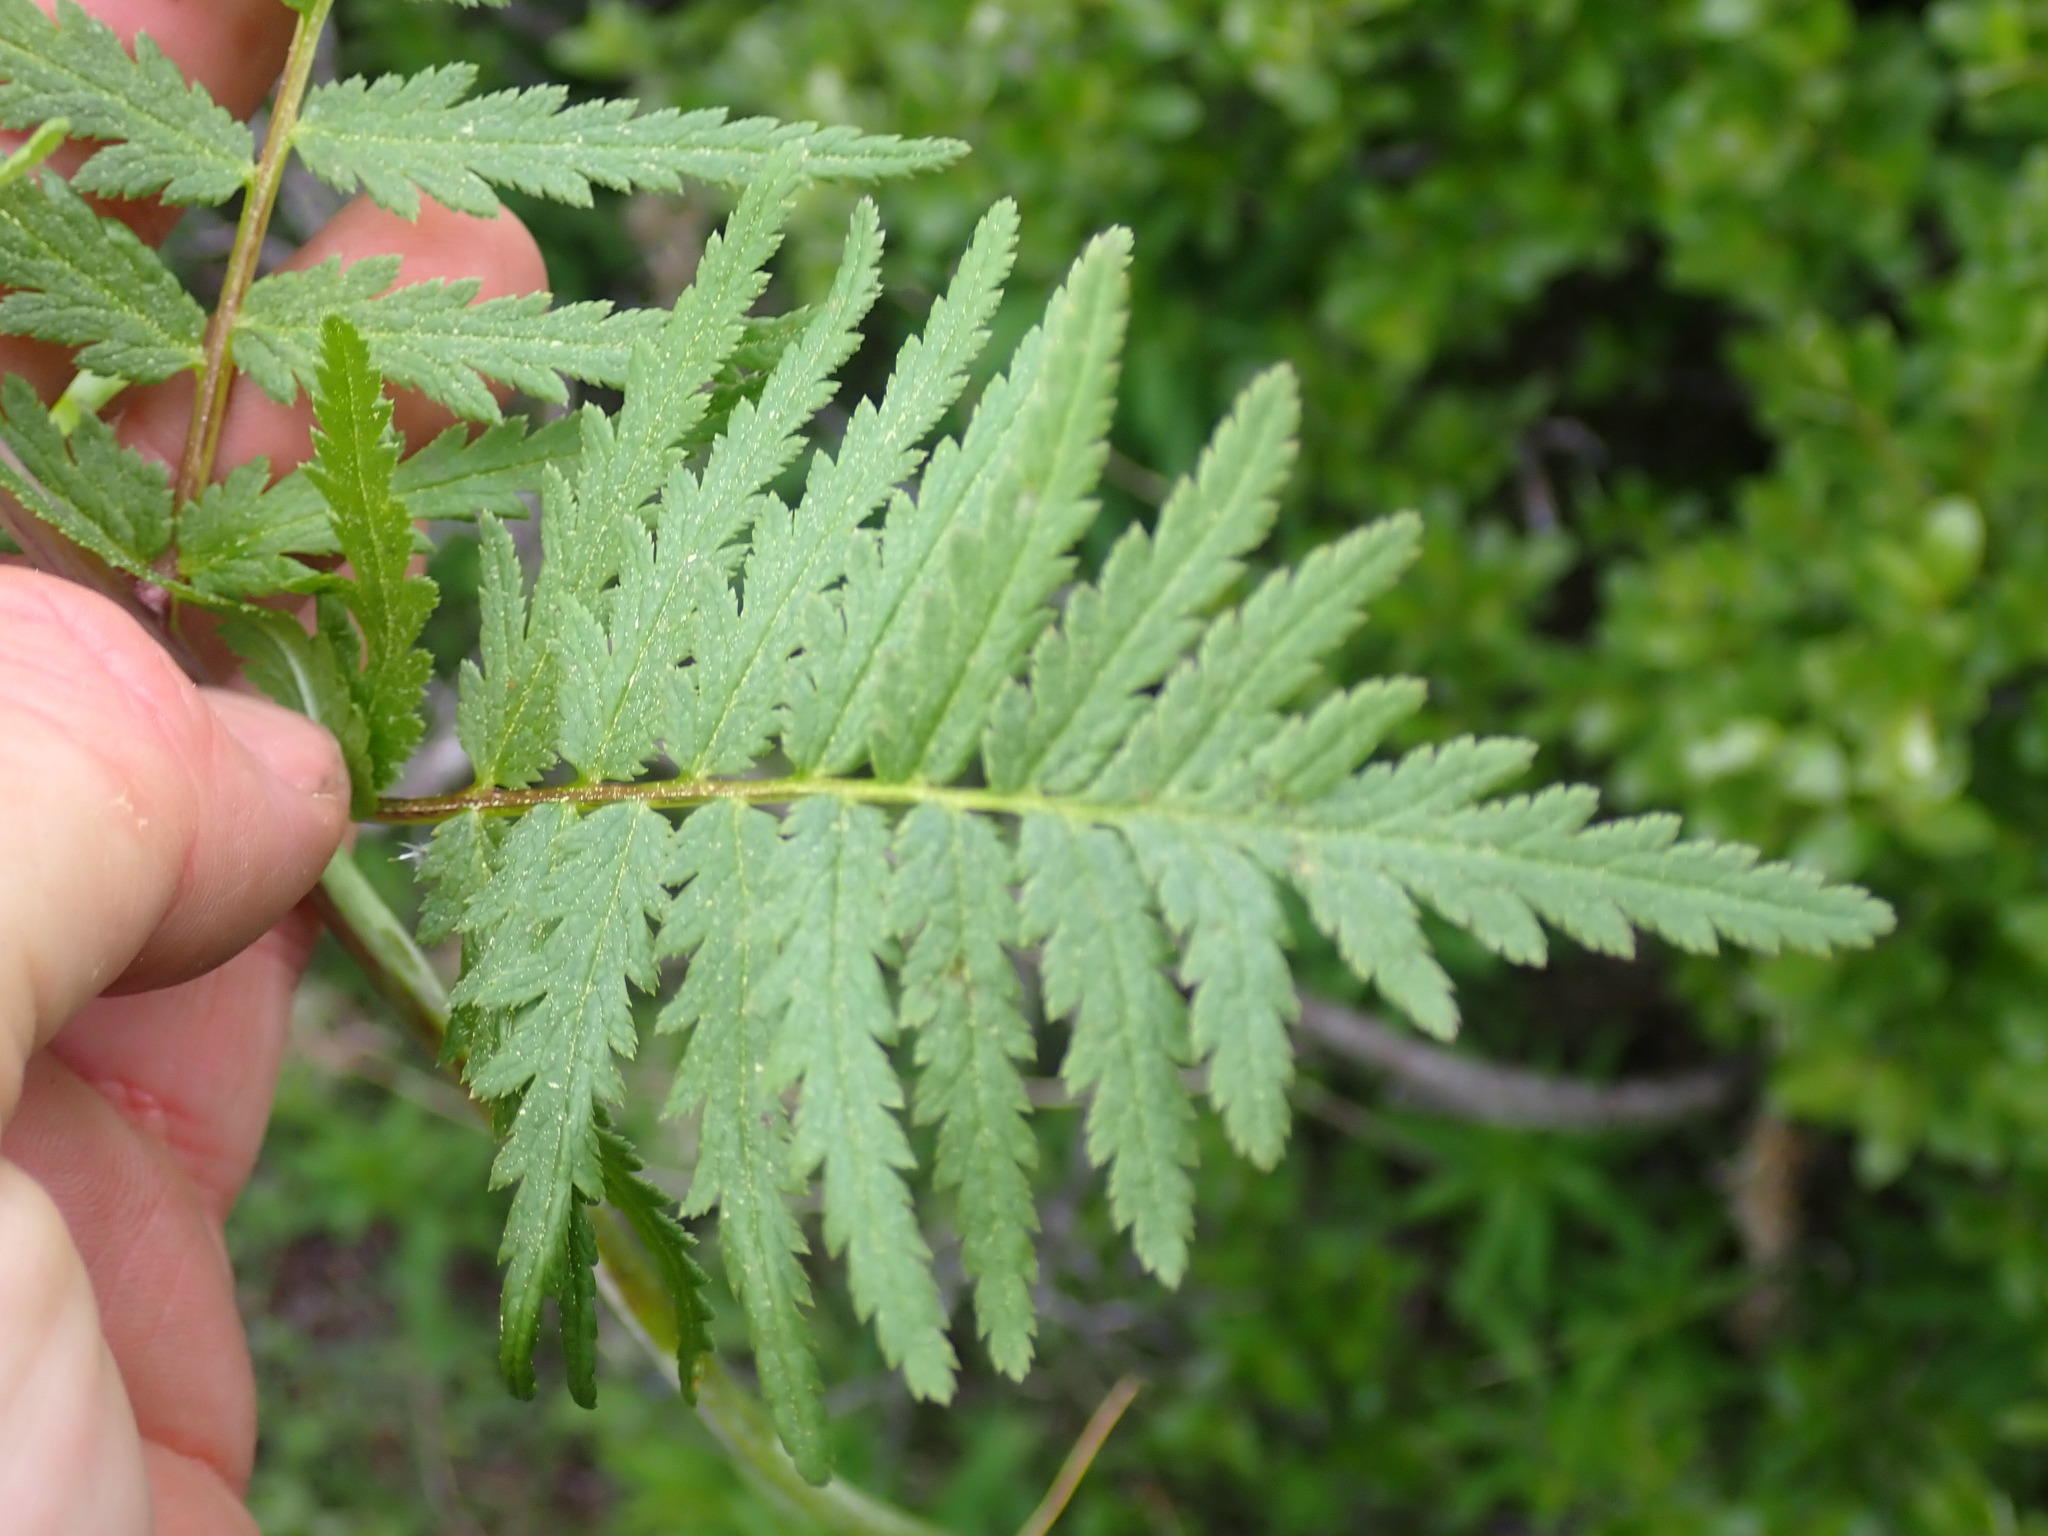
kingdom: Plantae
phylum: Tracheophyta
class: Magnoliopsida
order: Lamiales
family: Orobanchaceae
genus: Pedicularis
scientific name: Pedicularis bracteosa
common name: Bracted lousewort
